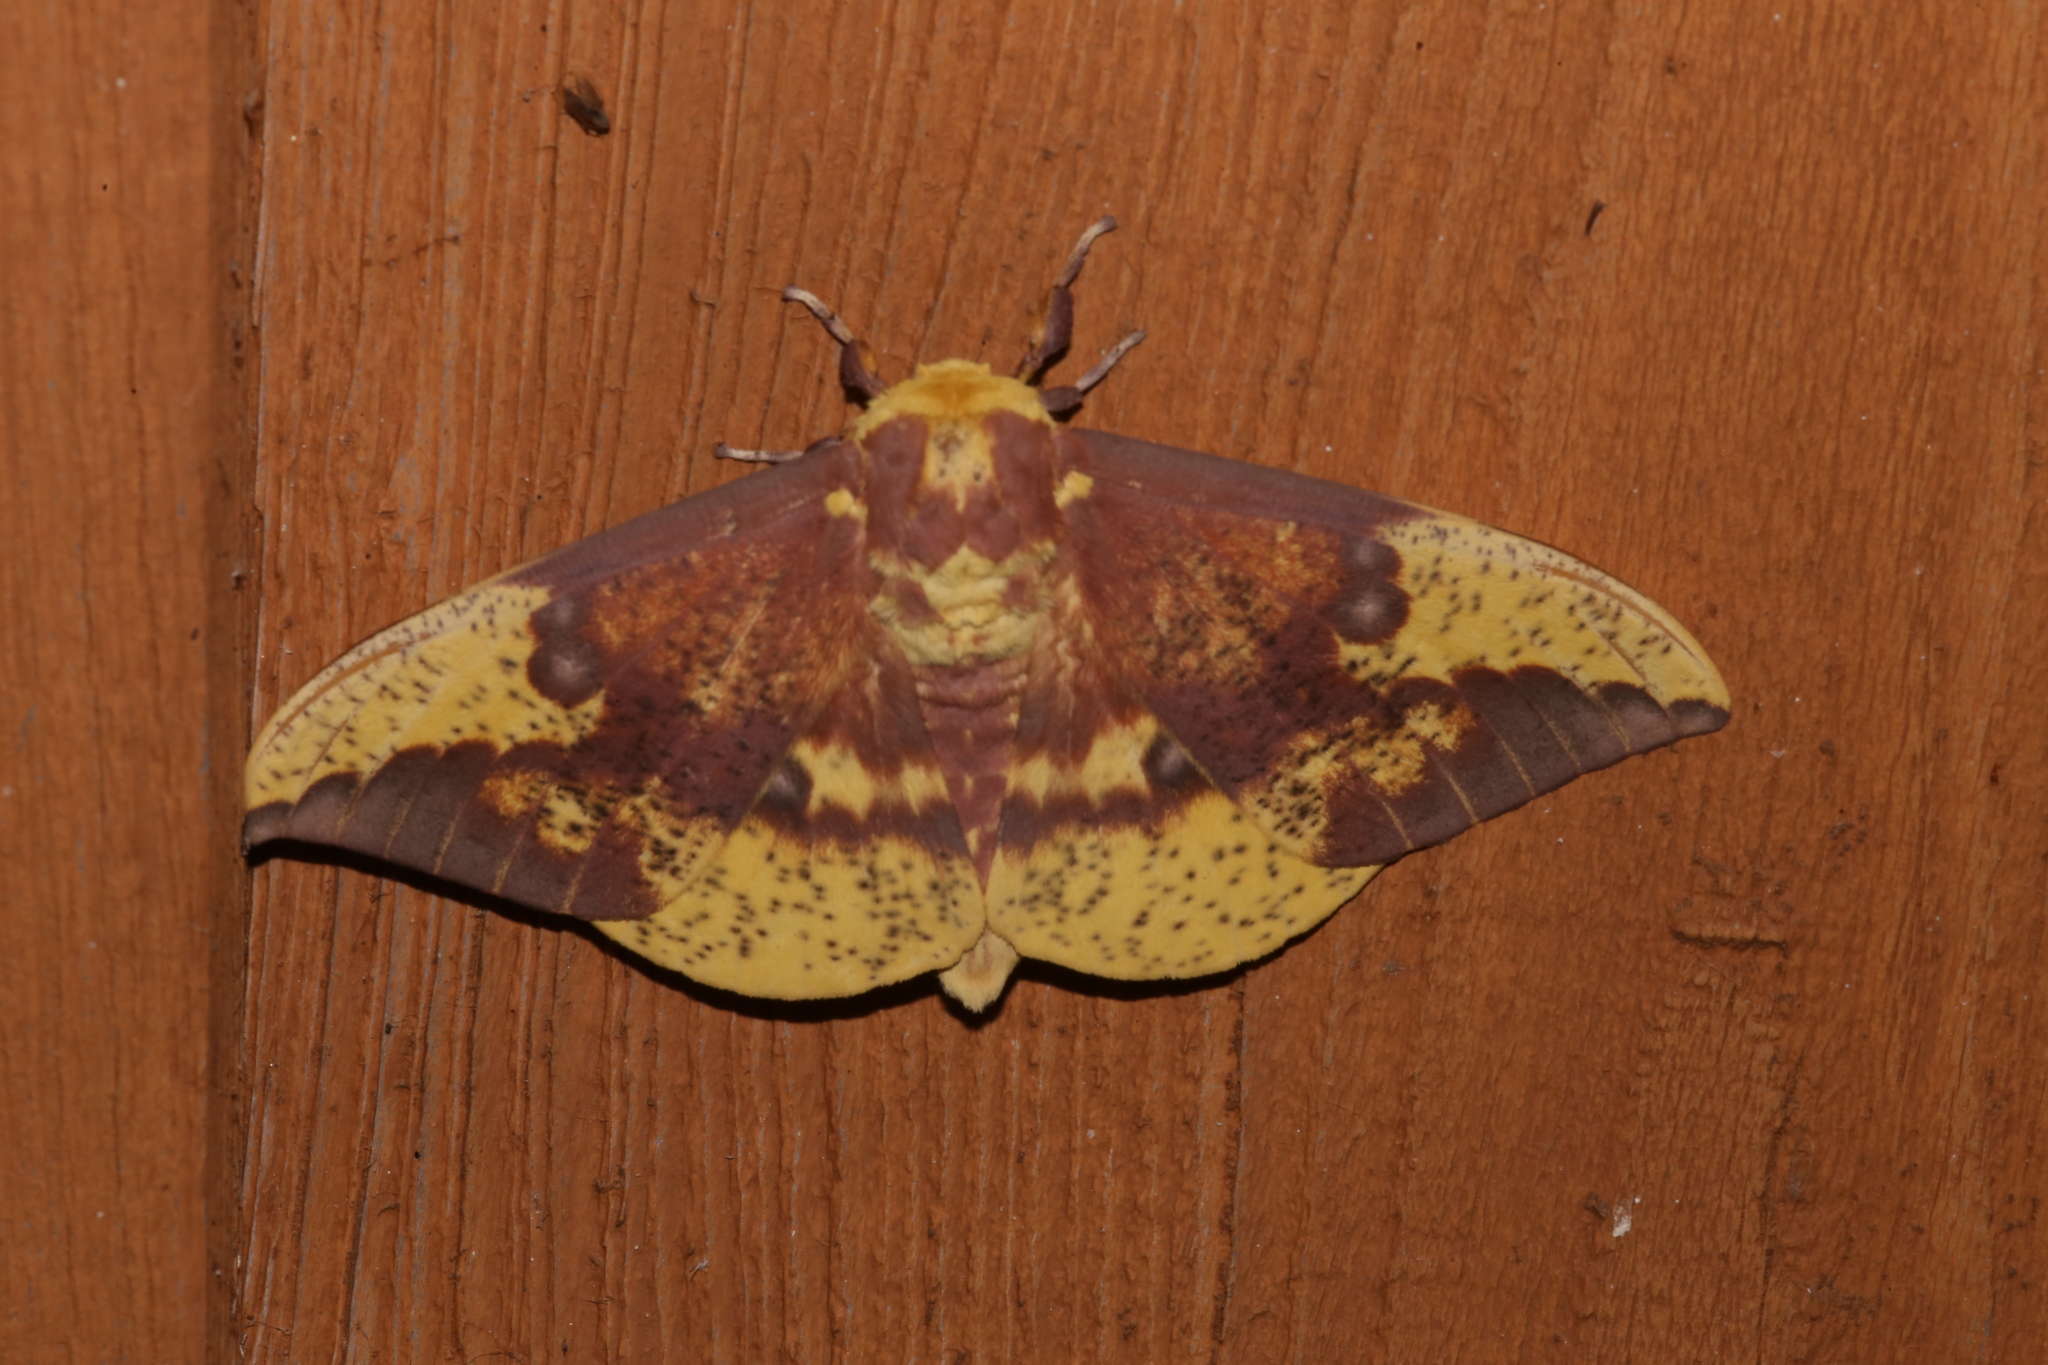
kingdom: Animalia
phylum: Arthropoda
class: Insecta
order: Lepidoptera
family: Saturniidae
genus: Eacles
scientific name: Eacles imperialis
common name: Imperial moth
